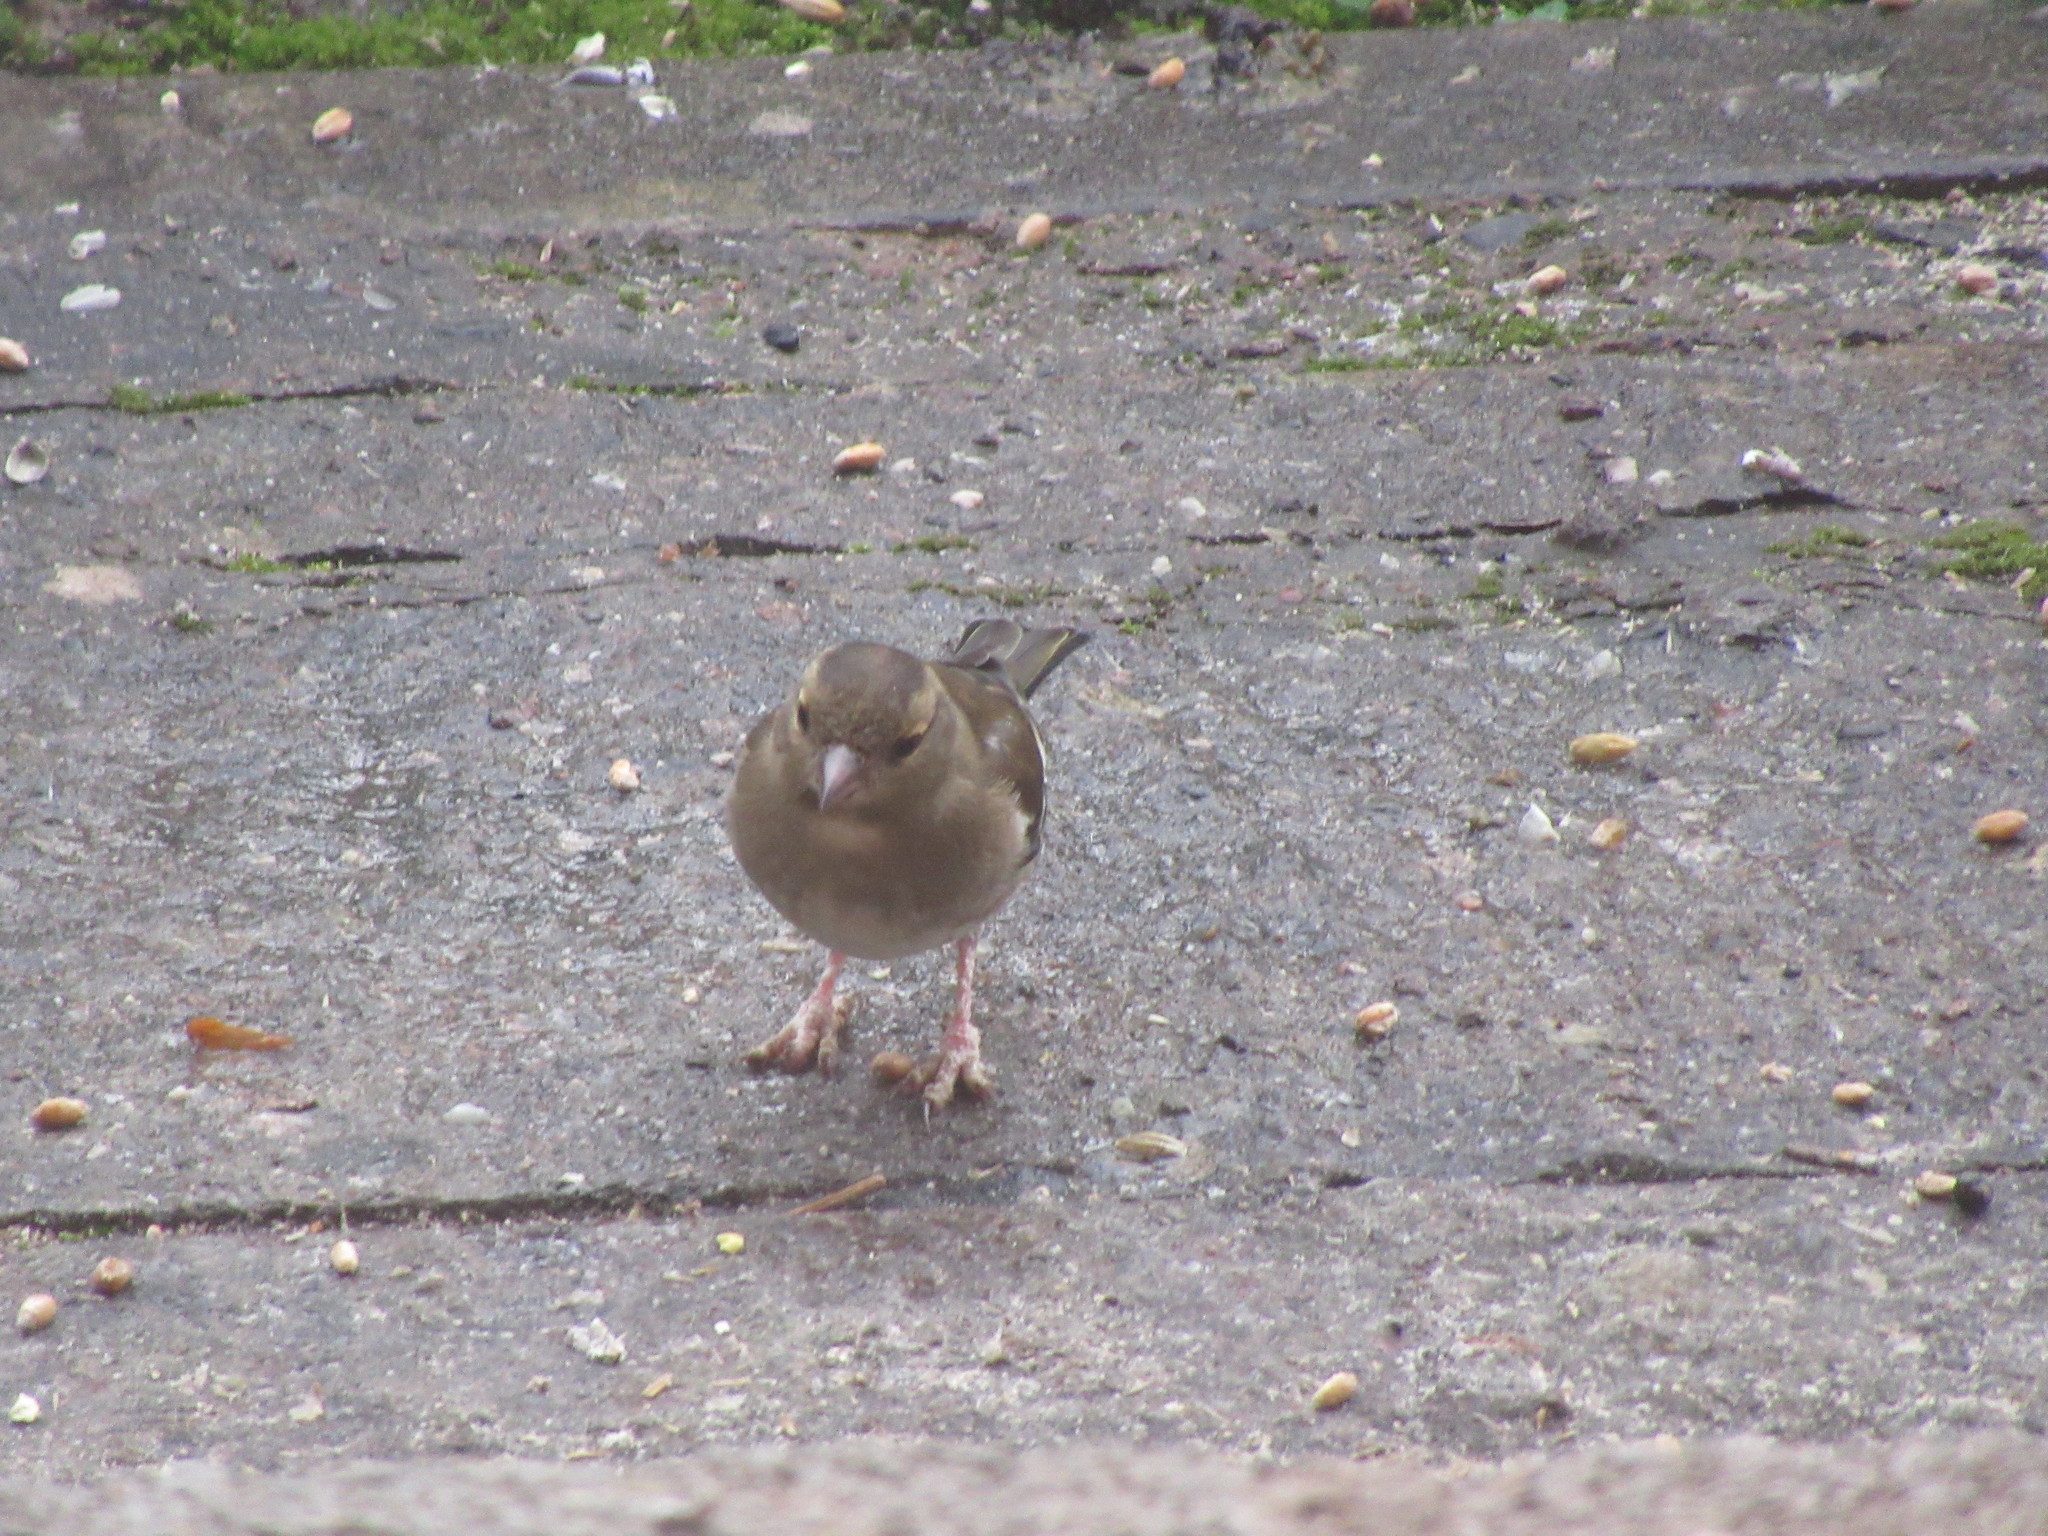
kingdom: Animalia
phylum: Chordata
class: Aves
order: Passeriformes
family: Fringillidae
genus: Fringilla
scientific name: Fringilla coelebs
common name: Common chaffinch
